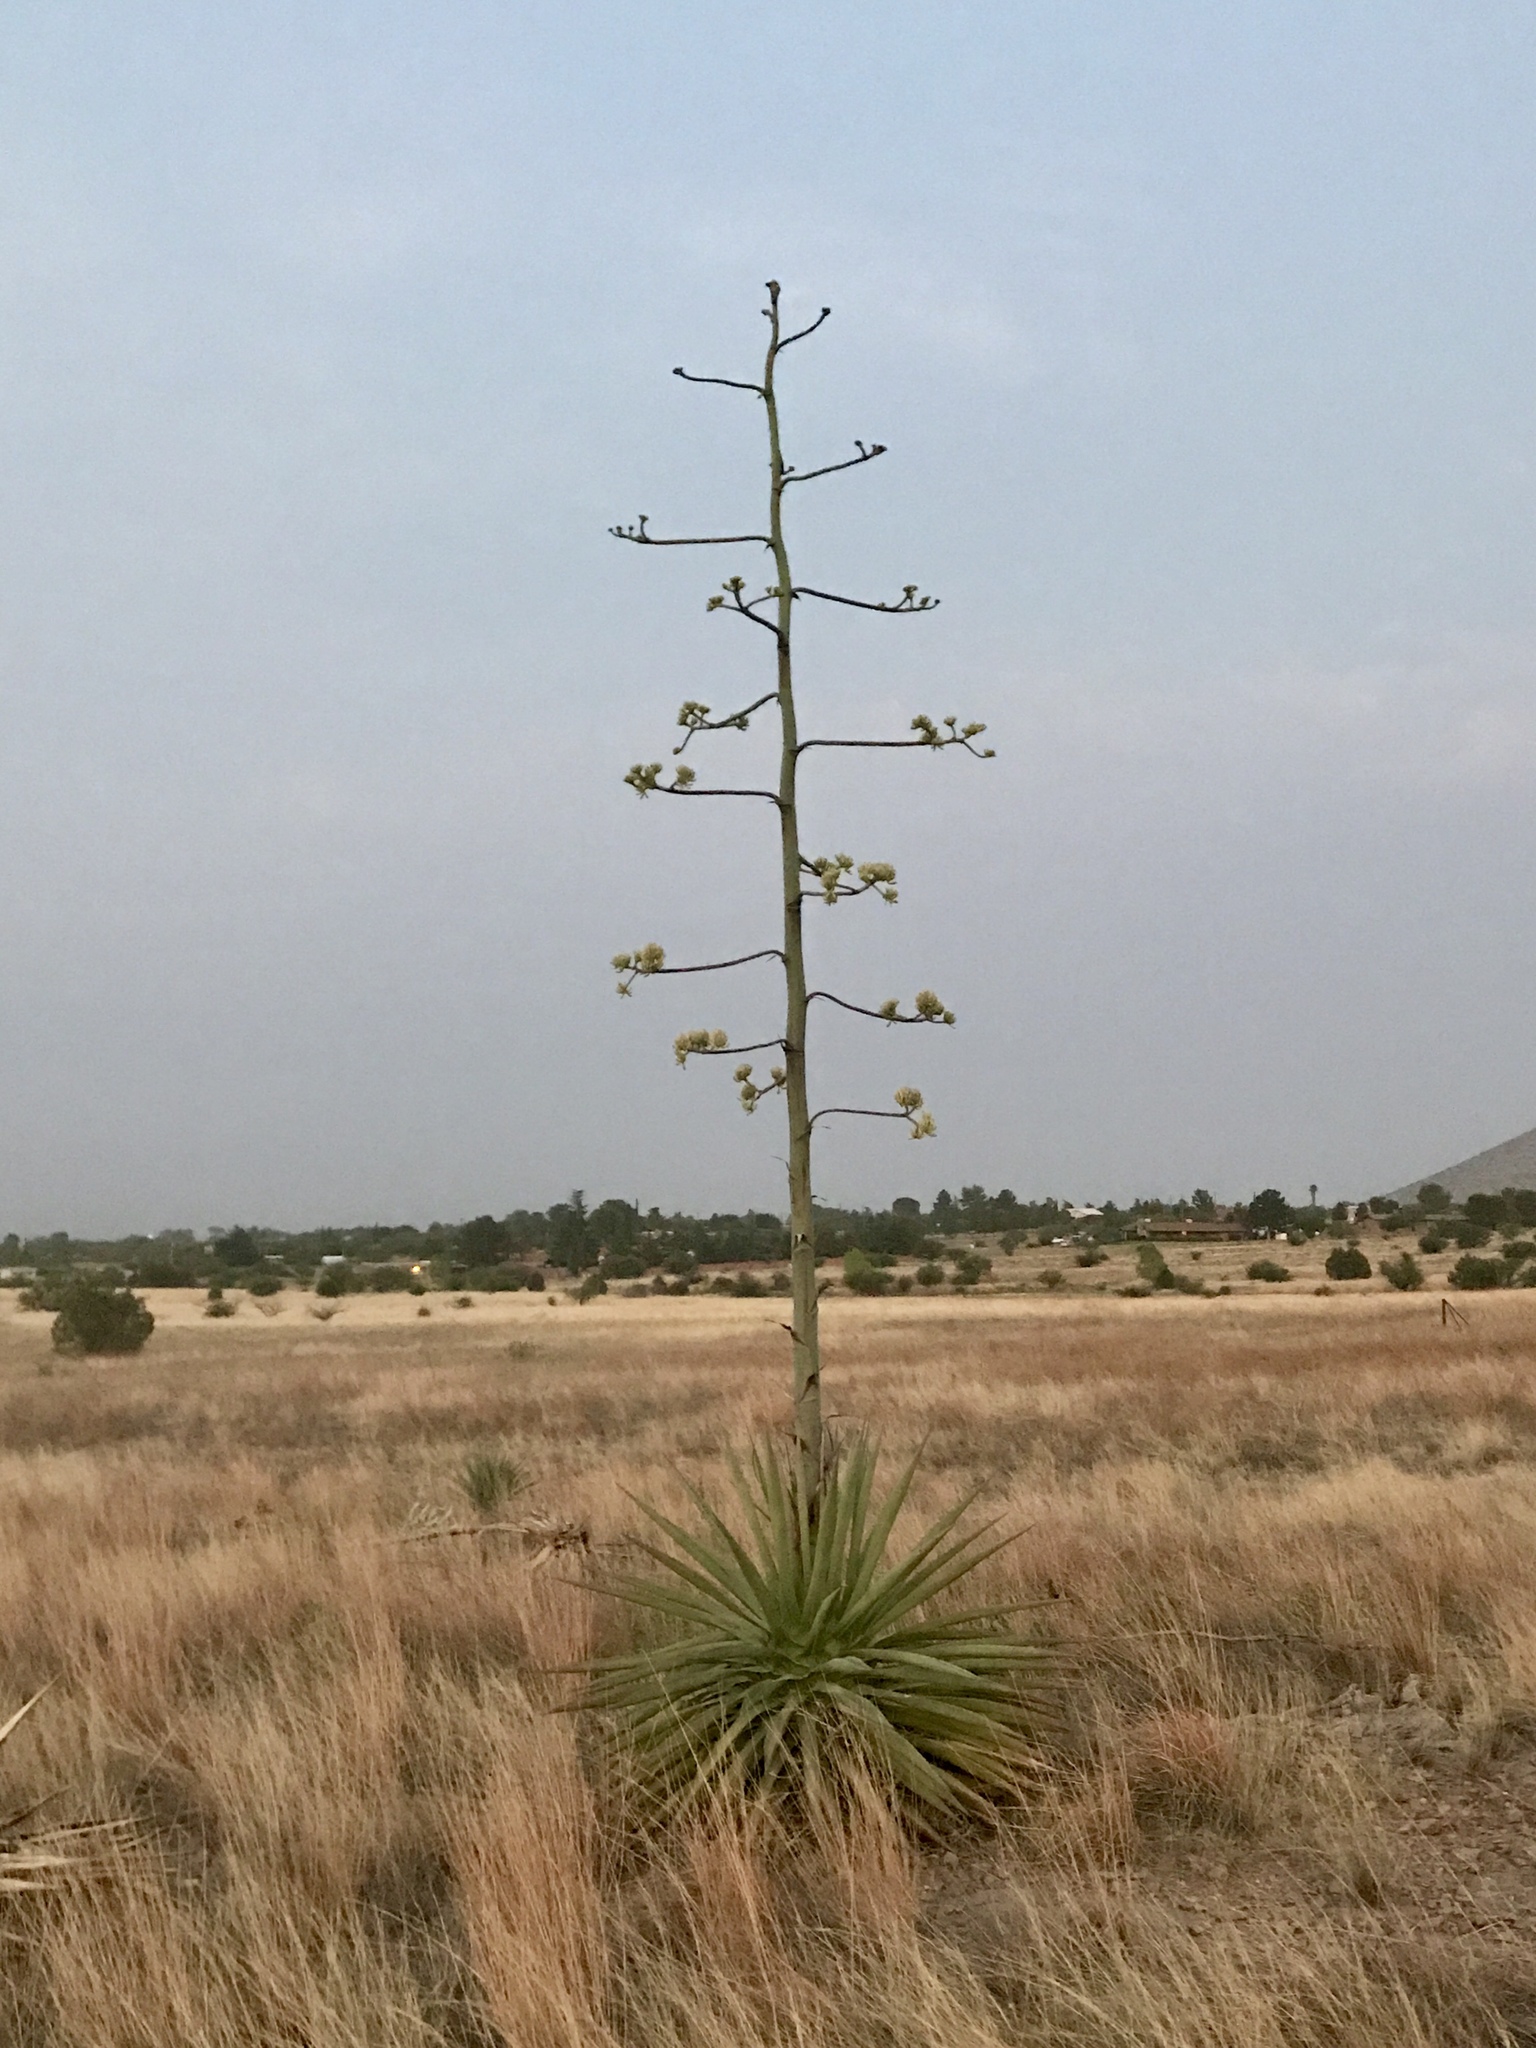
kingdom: Plantae
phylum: Tracheophyta
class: Liliopsida
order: Asparagales
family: Asparagaceae
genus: Agave
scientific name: Agave palmeri
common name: Palmer agave
